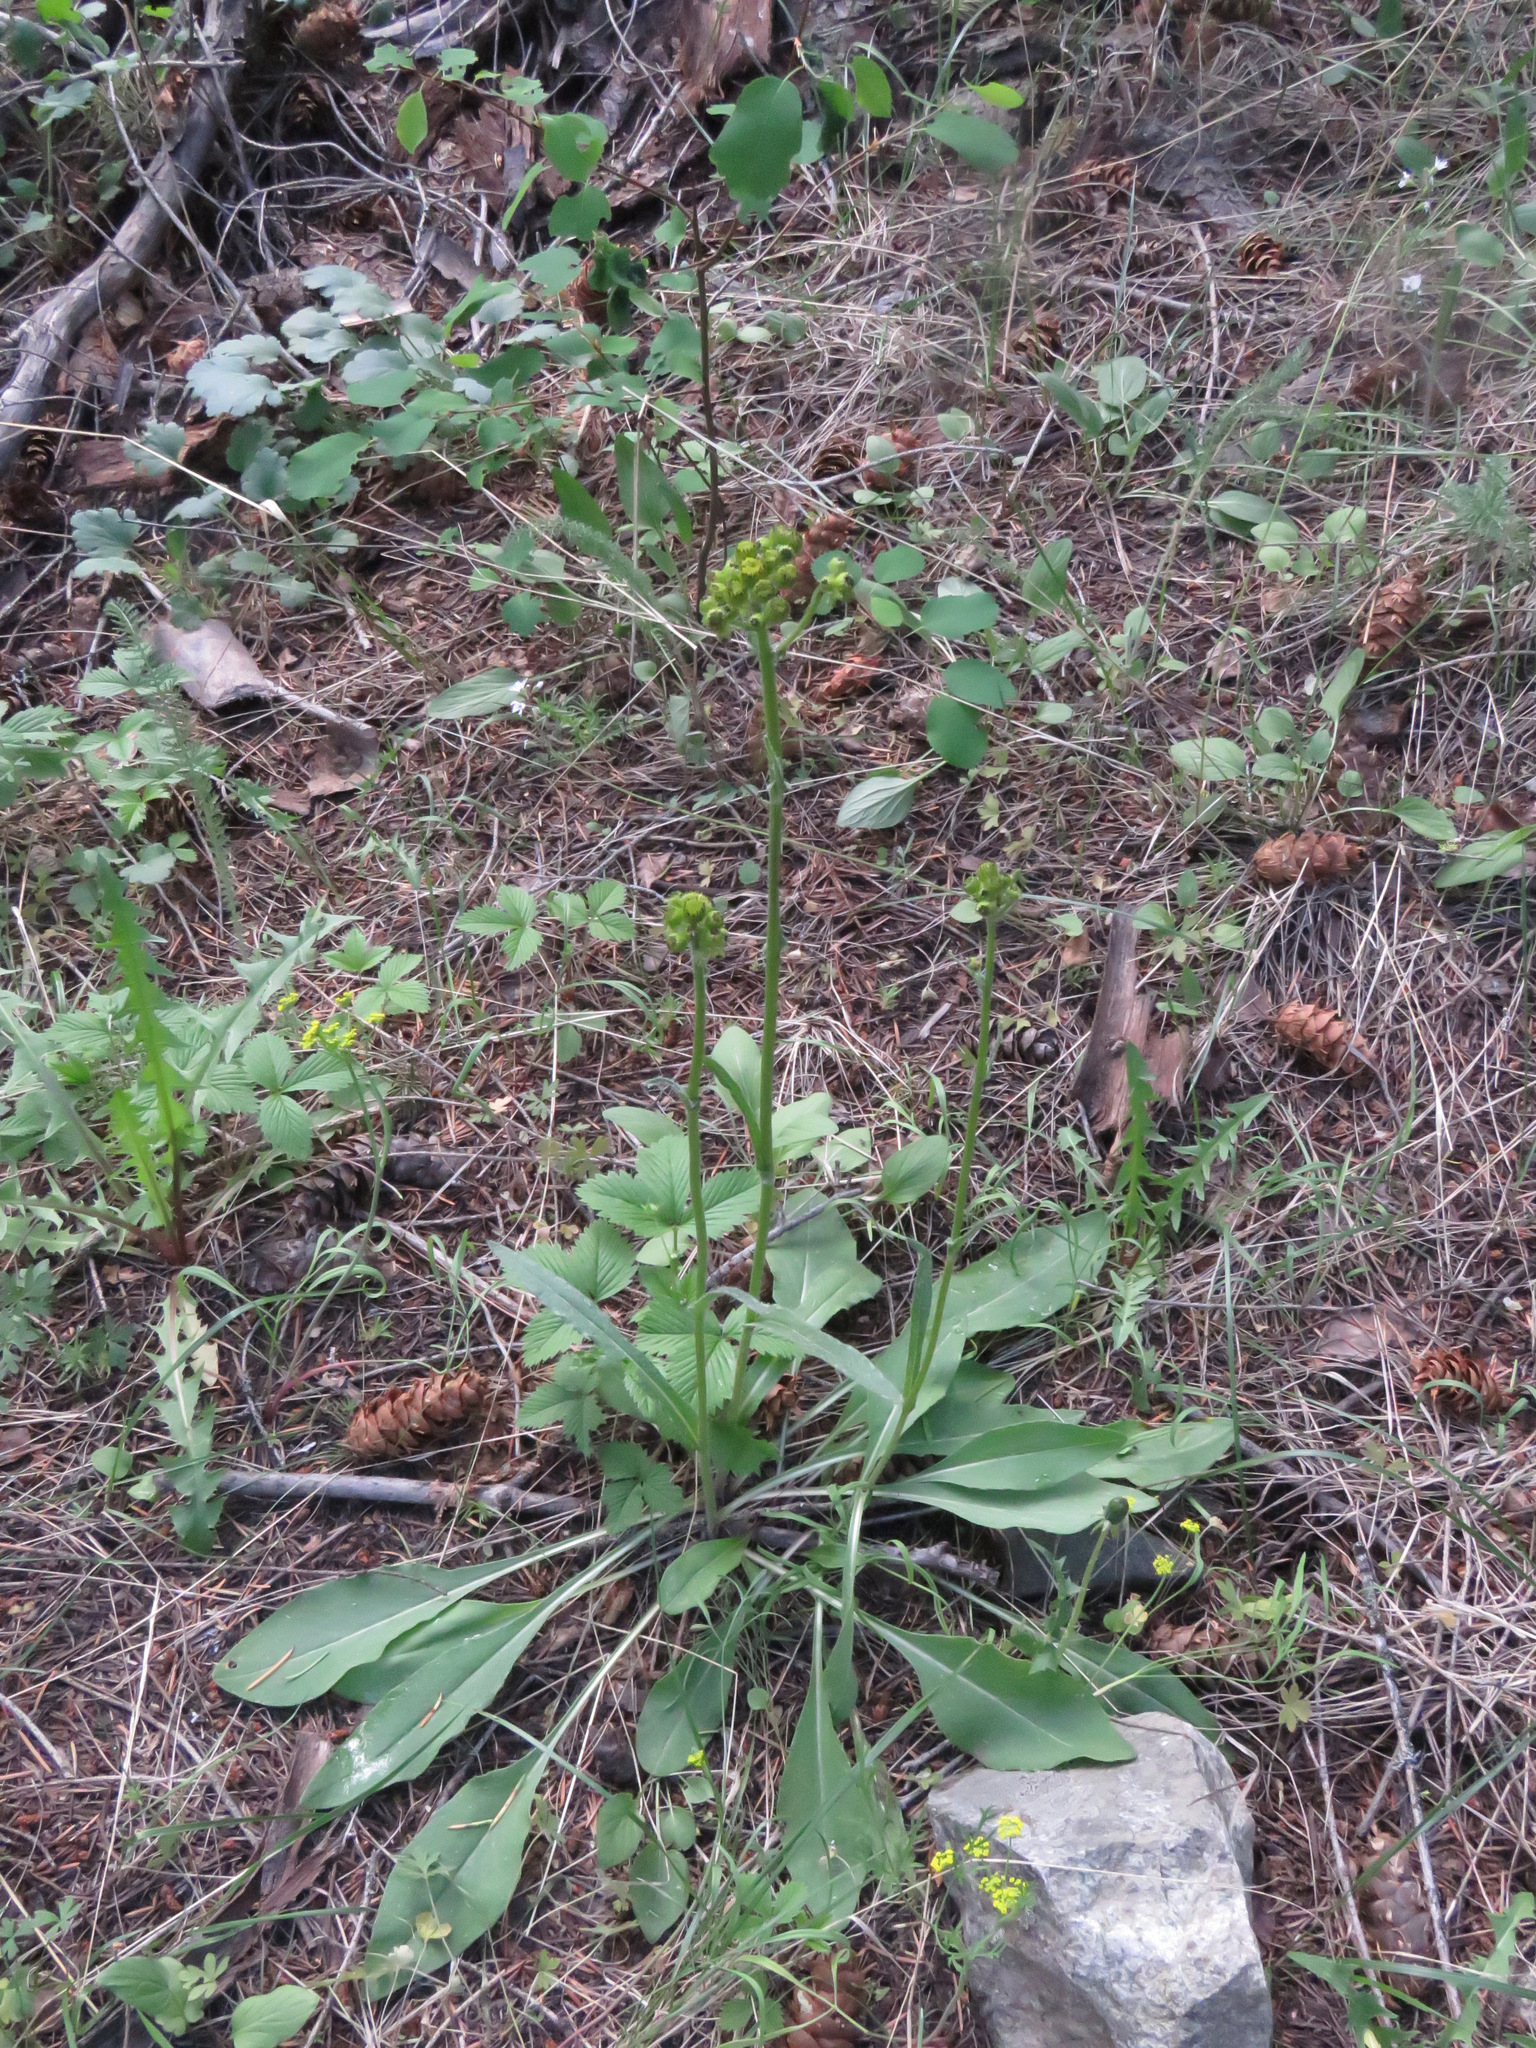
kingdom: Plantae
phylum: Tracheophyta
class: Magnoliopsida
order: Asterales
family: Asteraceae
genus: Senecio
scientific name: Senecio integerrimus
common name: Gaugeplant
